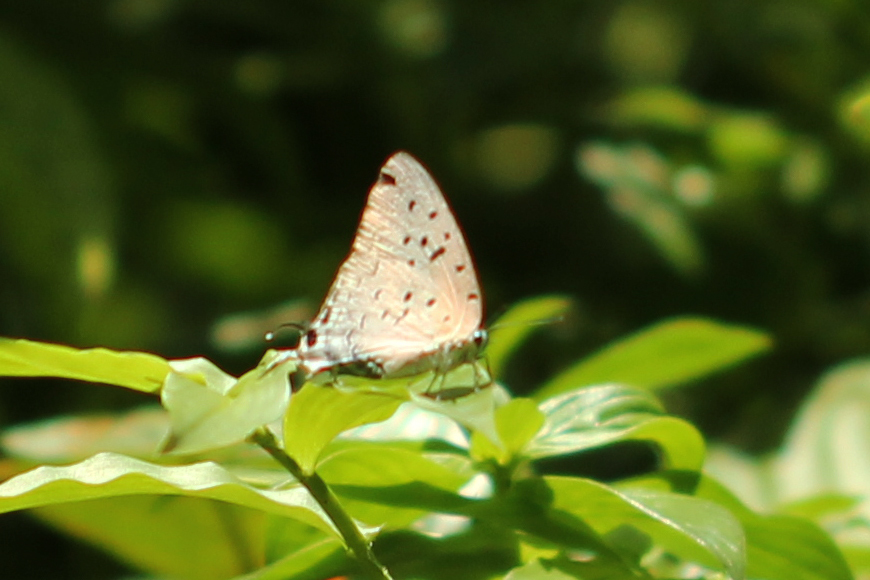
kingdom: Animalia
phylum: Arthropoda
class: Insecta
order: Lepidoptera
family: Lycaenidae
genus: Pseudolycaena
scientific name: Pseudolycaena damo
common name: Sky-blue hairstreak
